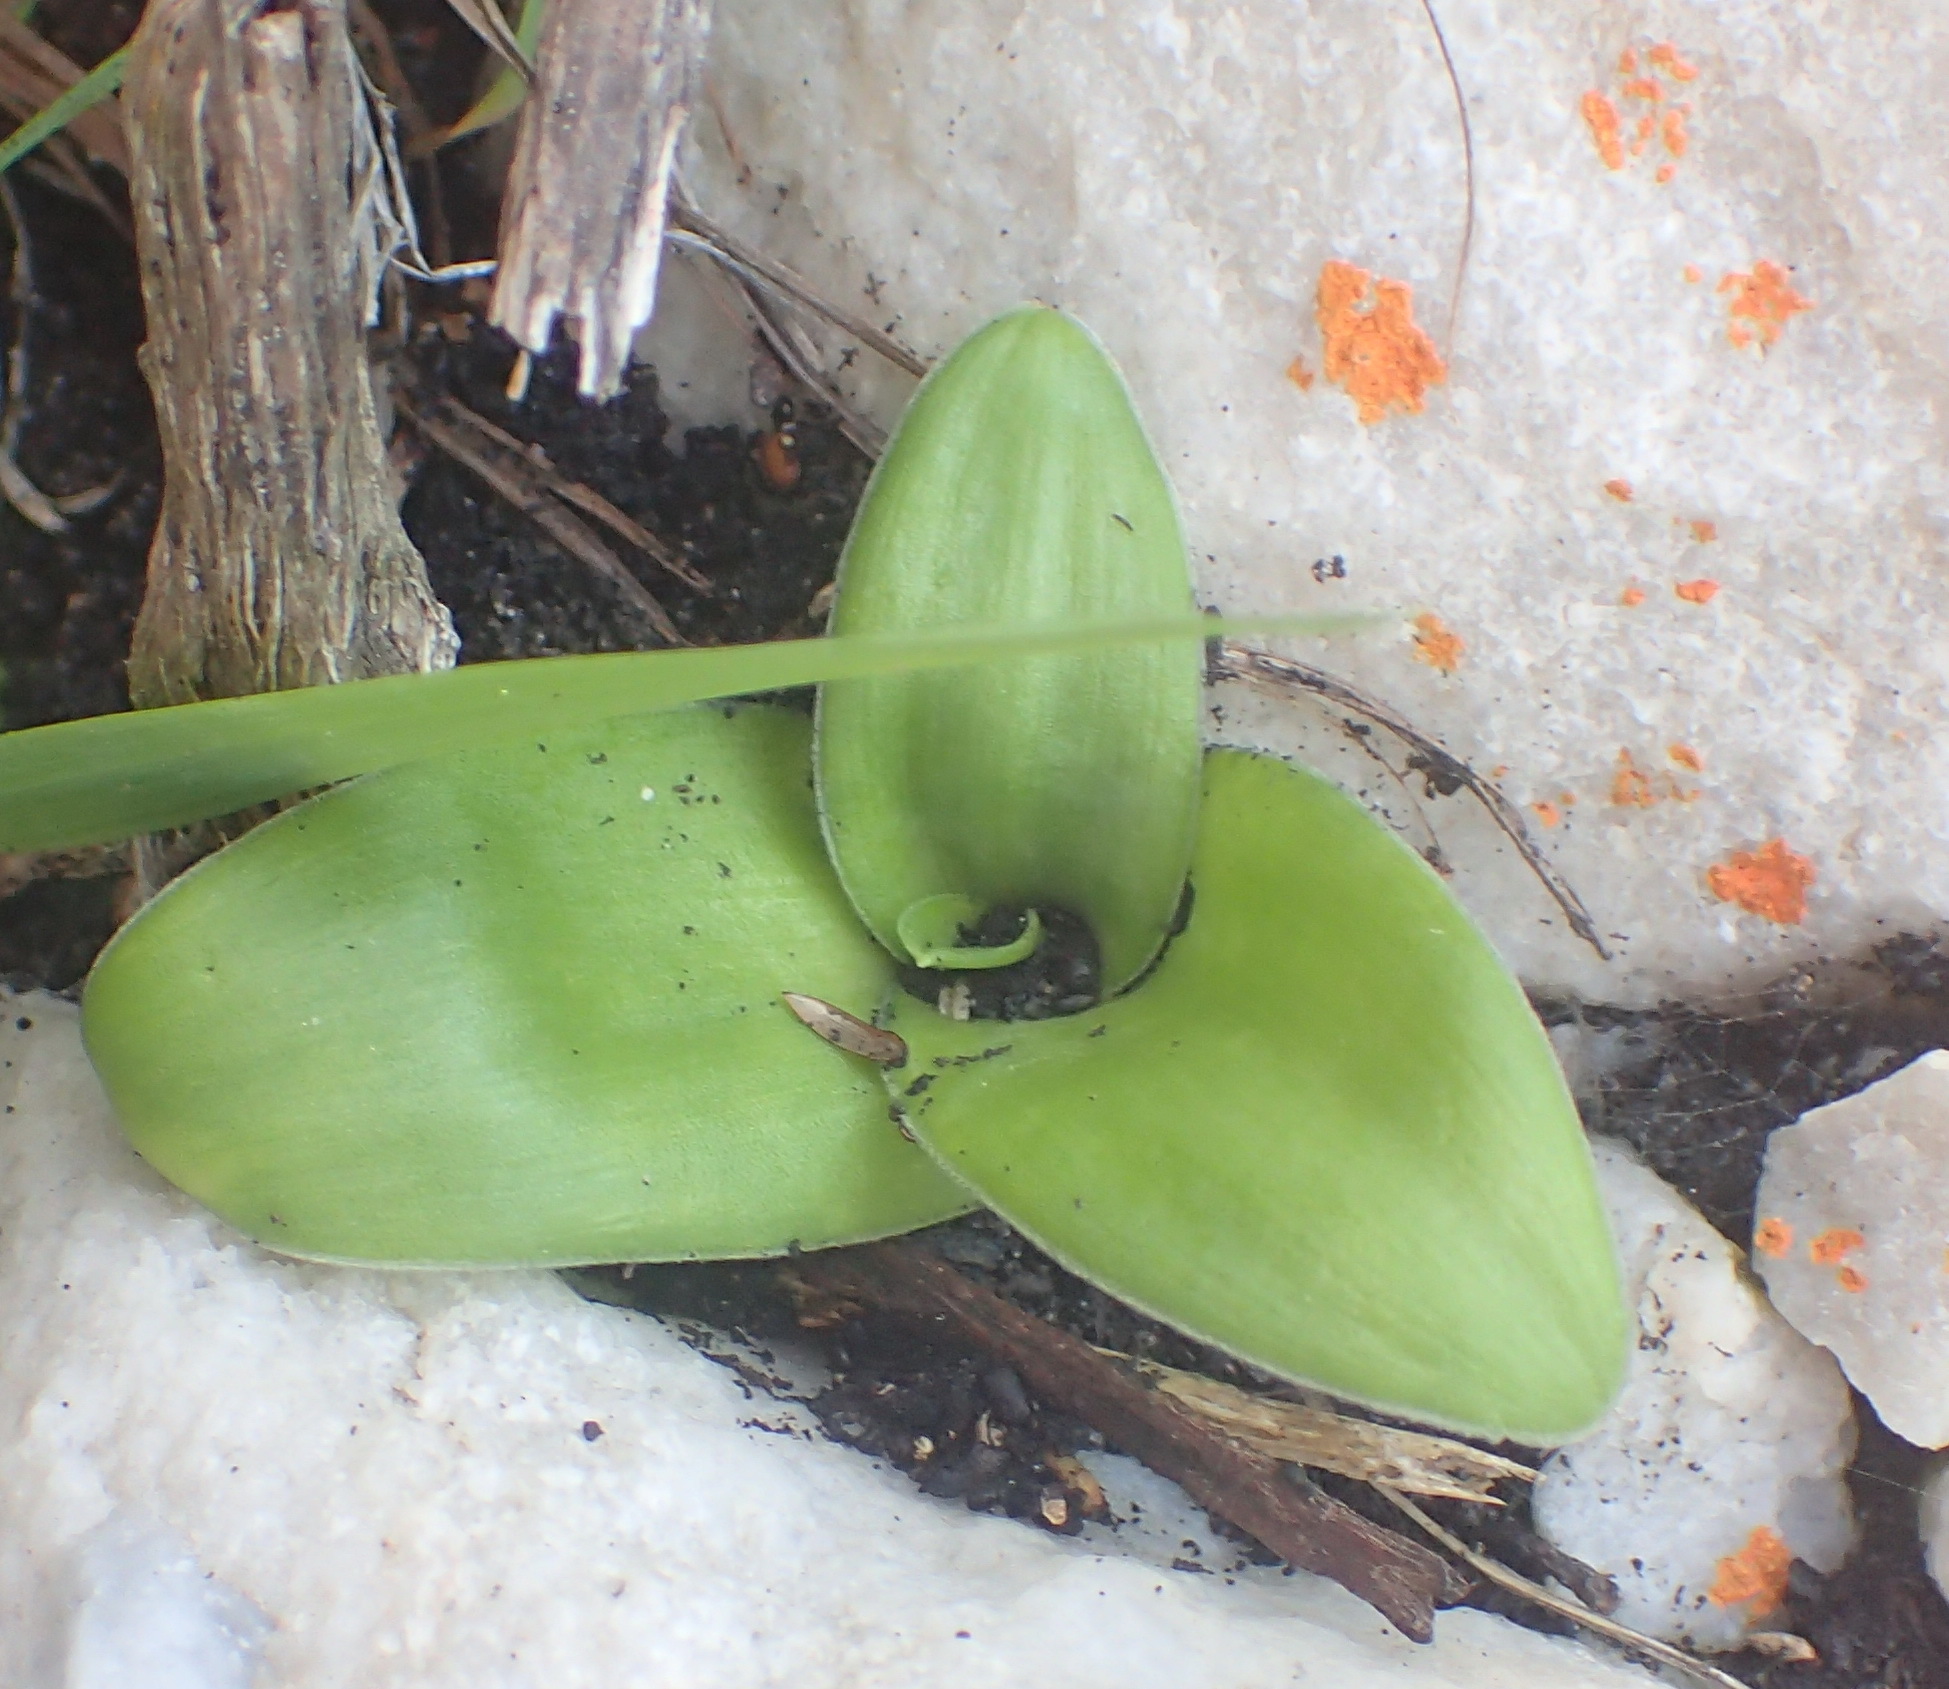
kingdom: Plantae
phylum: Tracheophyta
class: Liliopsida
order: Asparagales
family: Asparagaceae
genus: Ornithogalum
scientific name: Ornithogalum dubium
